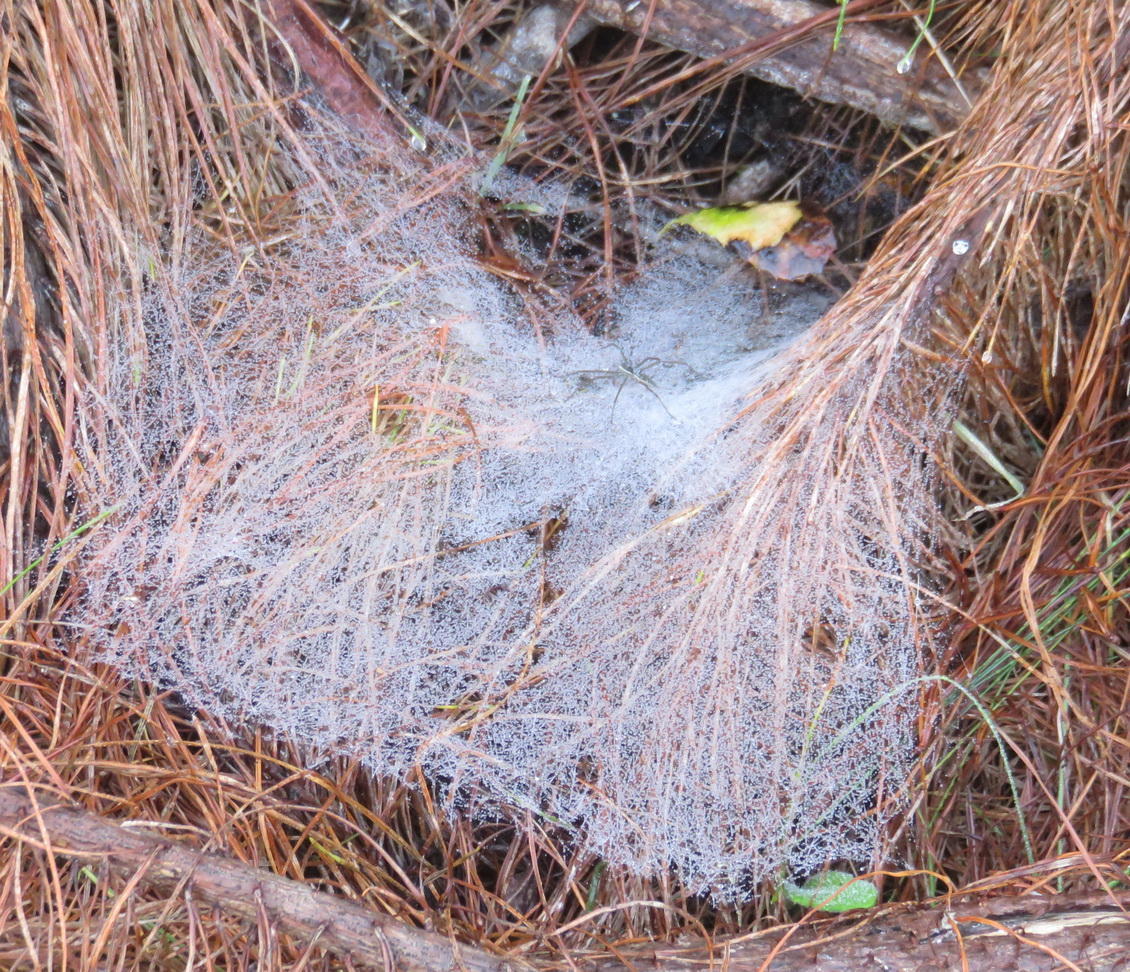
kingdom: Animalia
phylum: Arthropoda
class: Arachnida
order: Araneae
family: Pisauridae
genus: Euprosthenopsis
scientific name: Euprosthenopsis pulchella
